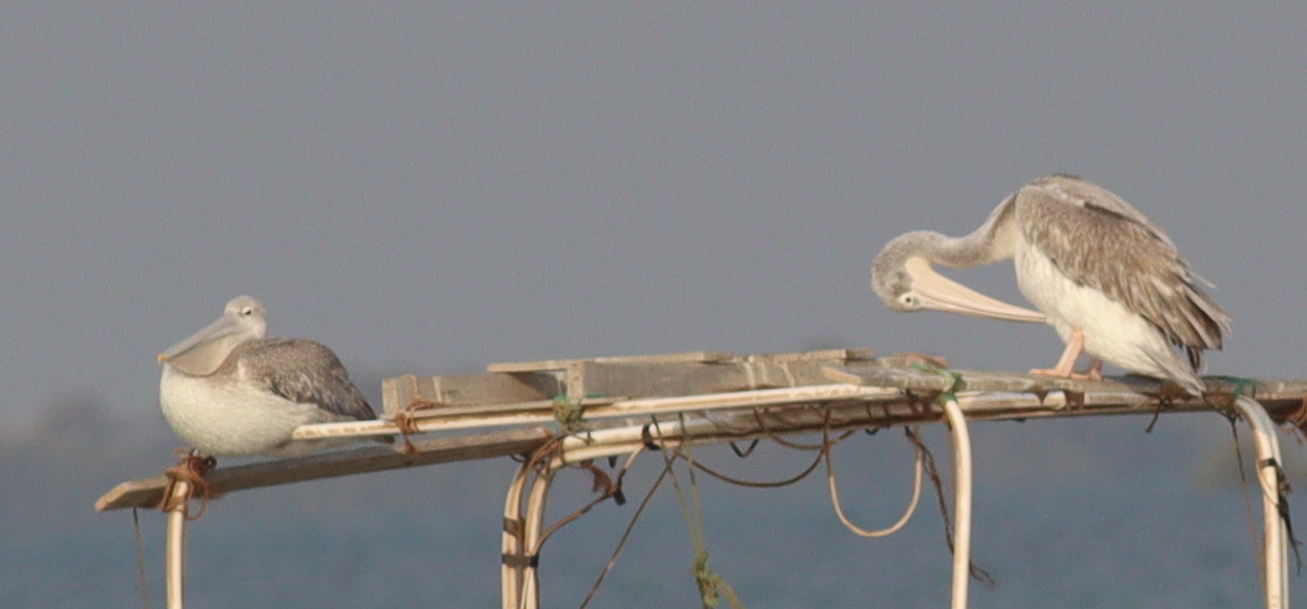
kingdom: Animalia
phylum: Chordata
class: Aves
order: Pelecaniformes
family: Pelecanidae
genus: Pelecanus
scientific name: Pelecanus rufescens
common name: Pink-backed pelican
